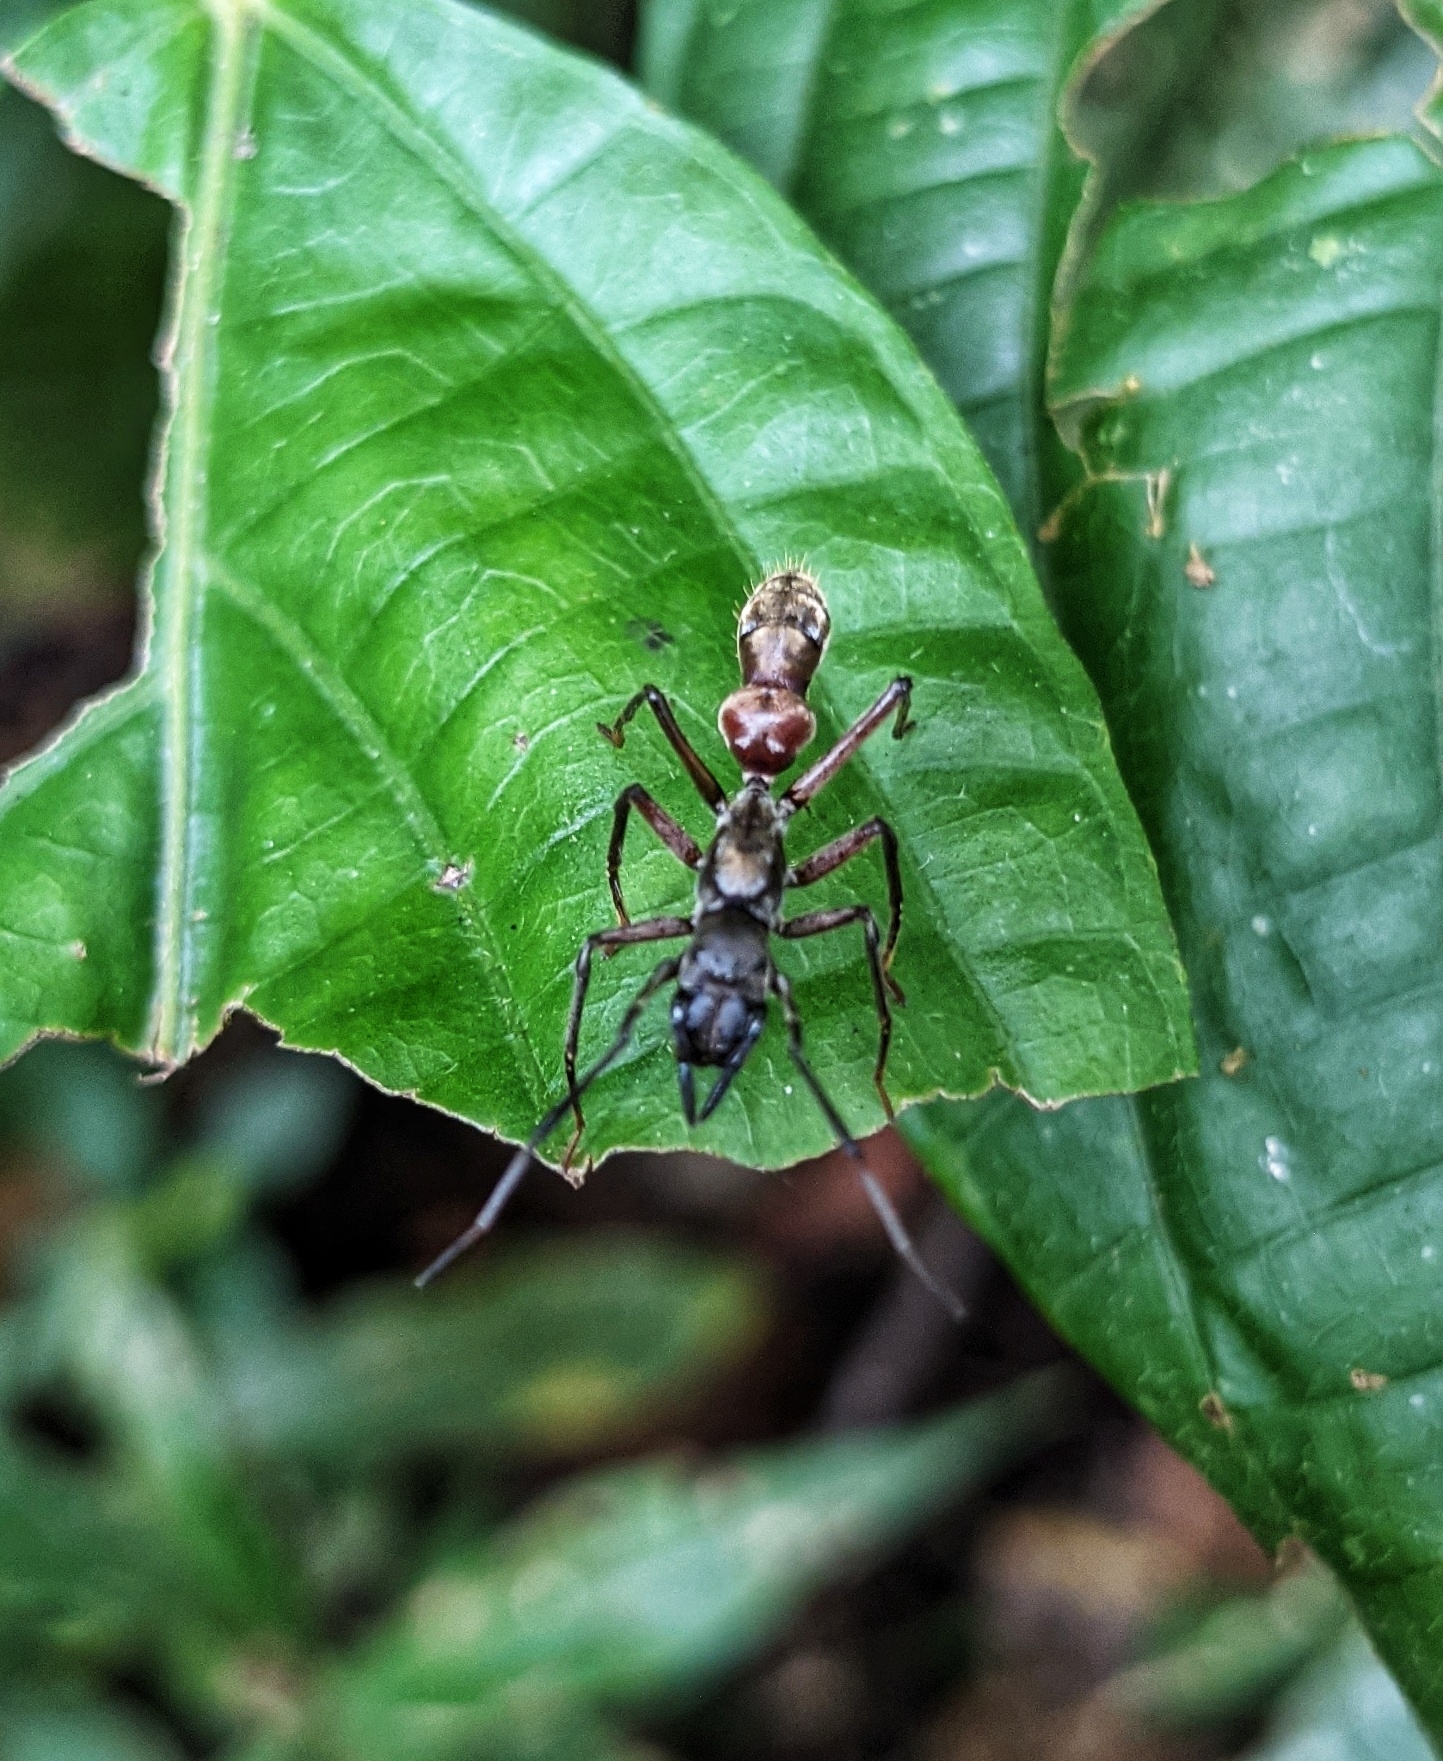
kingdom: Animalia
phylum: Arthropoda
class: Arachnida
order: Araneae
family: Corinnidae
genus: Sphecotypus
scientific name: Sphecotypus niger
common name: Corinnid sac spiders
